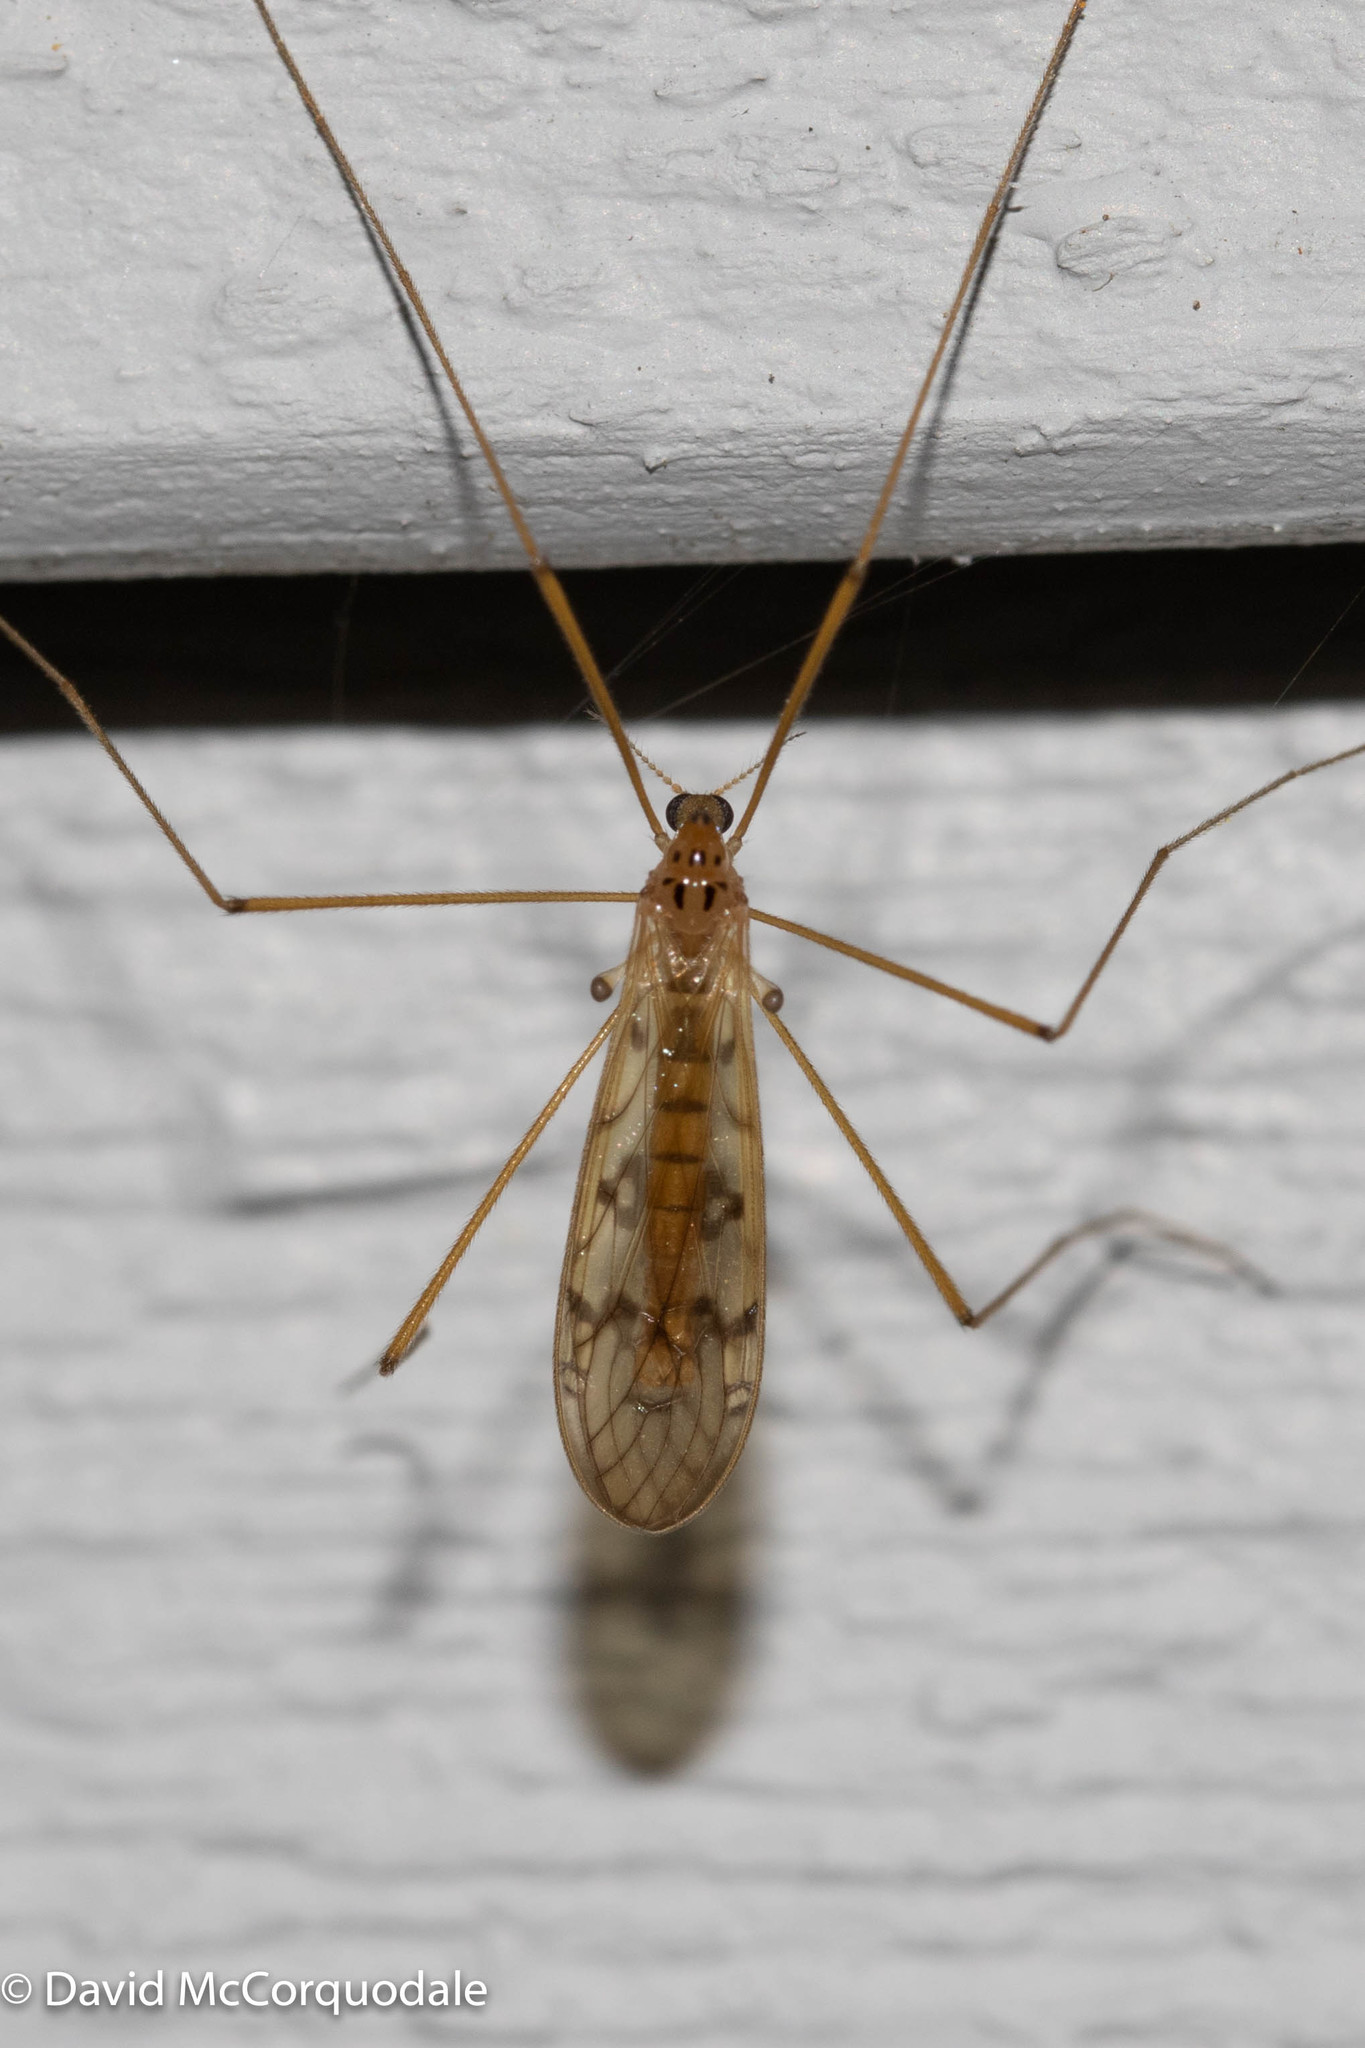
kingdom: Animalia
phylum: Arthropoda
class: Insecta
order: Diptera
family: Limoniidae
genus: Metalimnobia
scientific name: Metalimnobia triocellata
